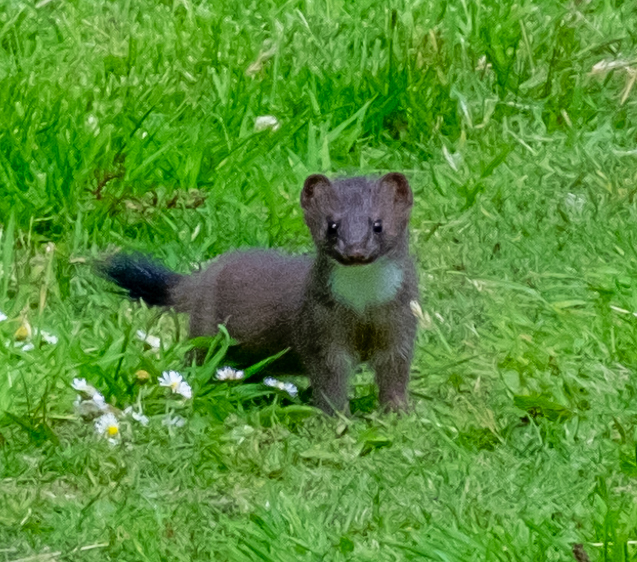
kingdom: Animalia
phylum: Chordata
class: Mammalia
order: Carnivora
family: Mustelidae
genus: Mustela
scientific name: Mustela erminea
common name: Stoat
